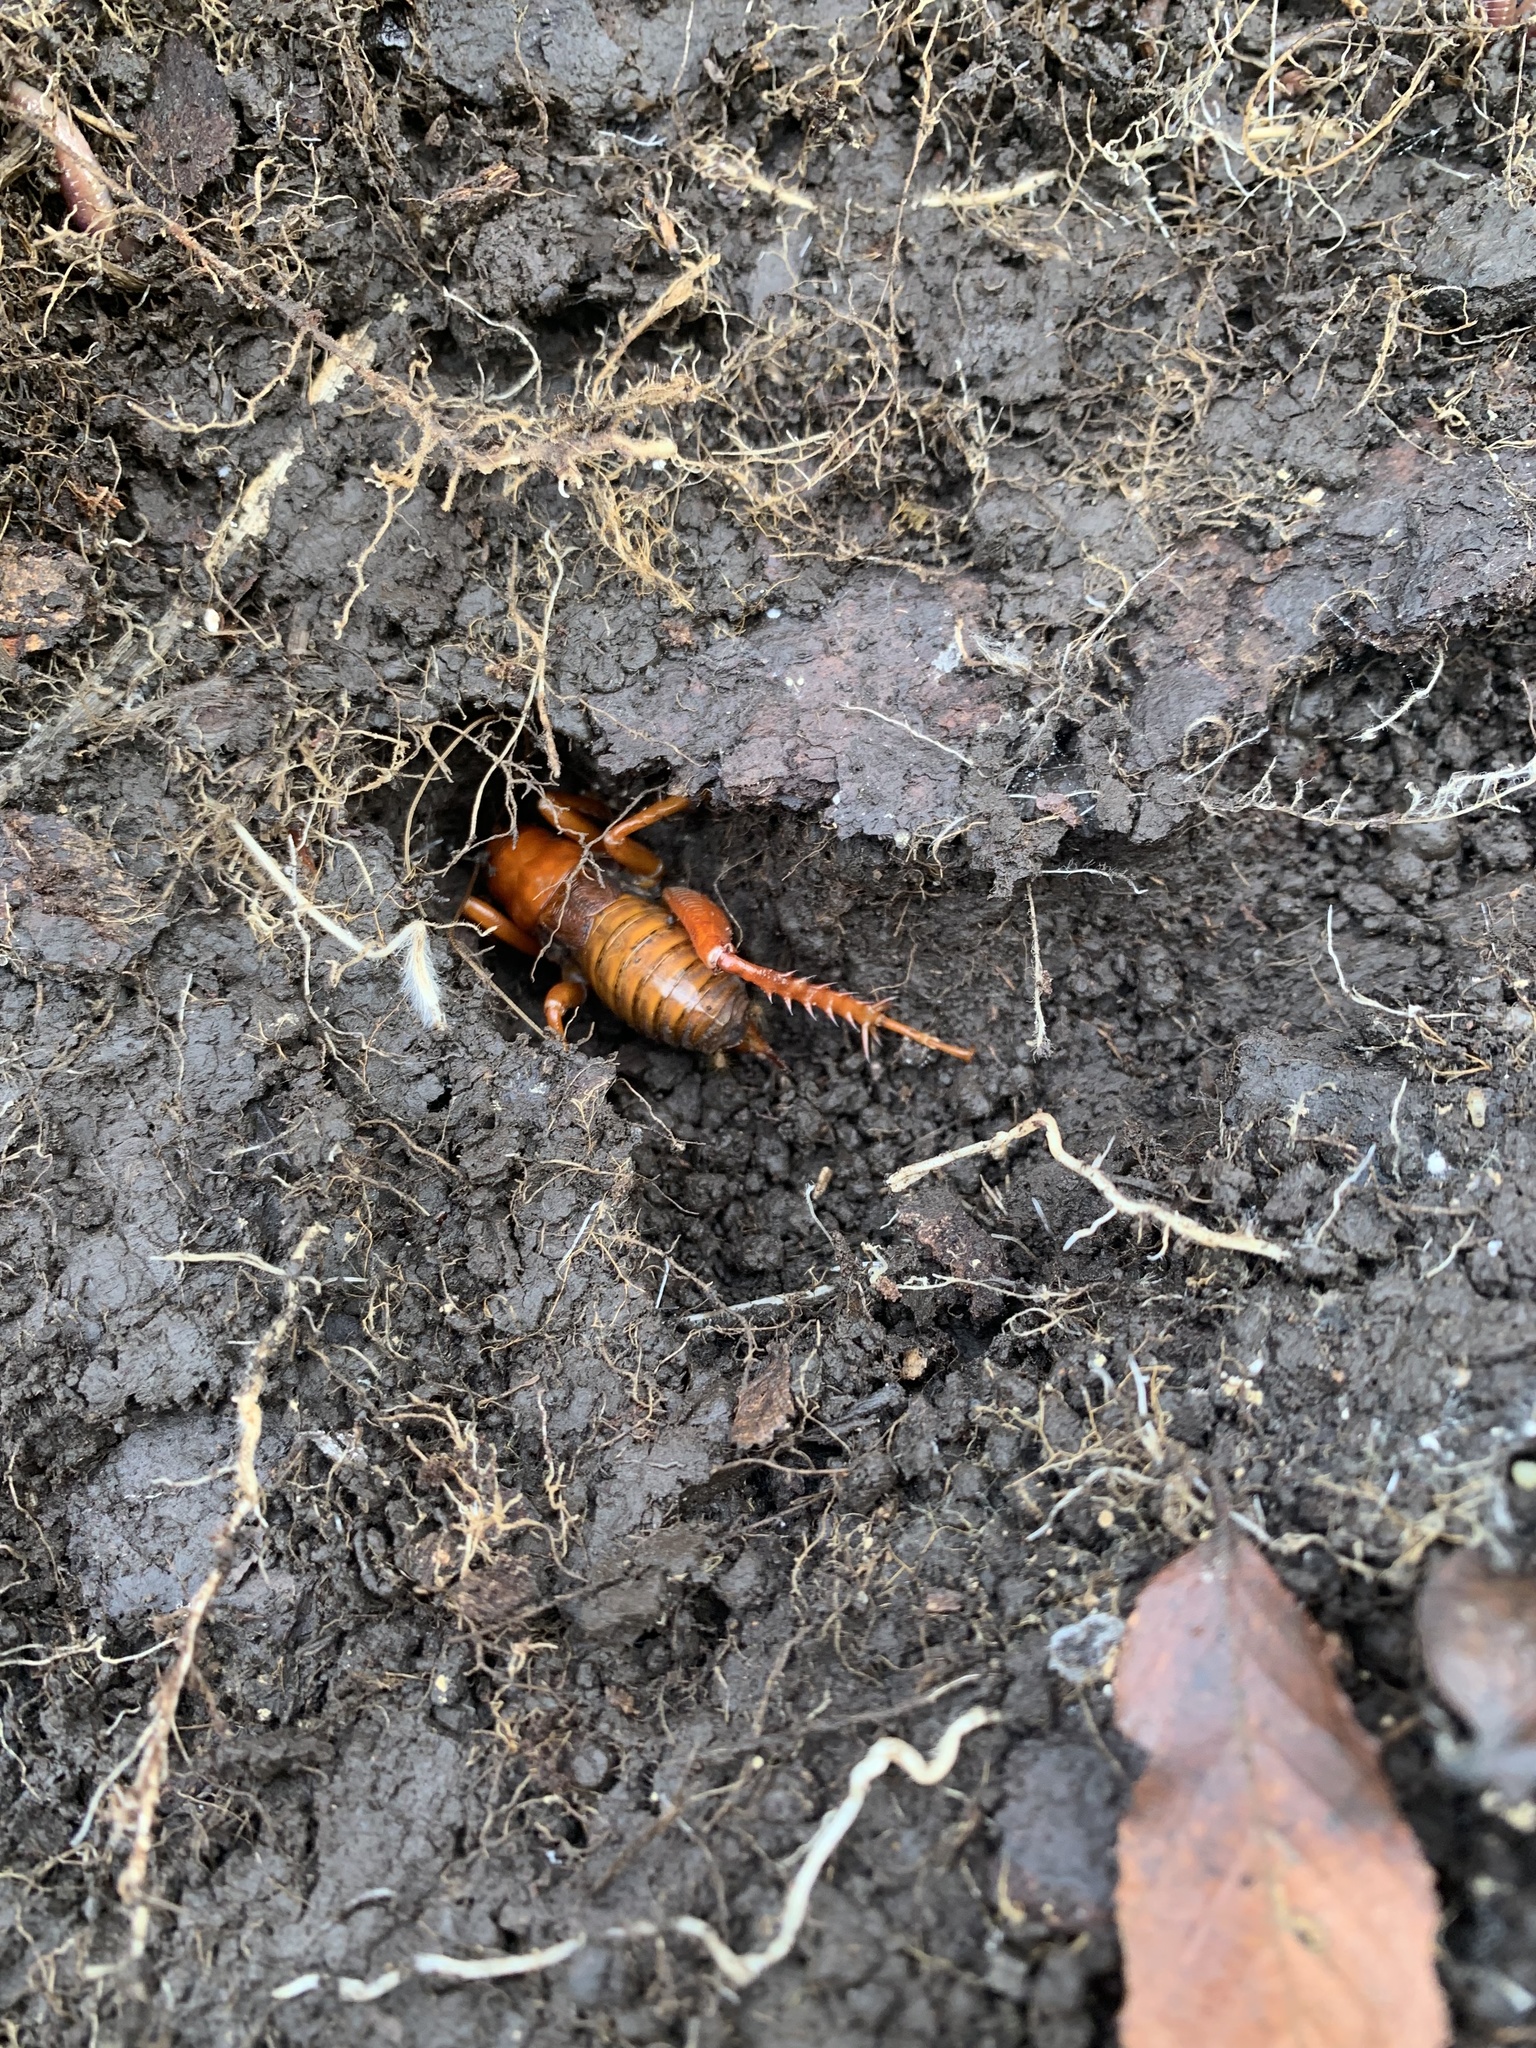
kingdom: Animalia
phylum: Arthropoda
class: Insecta
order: Orthoptera
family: Anostostomatidae
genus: Cratomelus
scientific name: Cratomelus armatus
